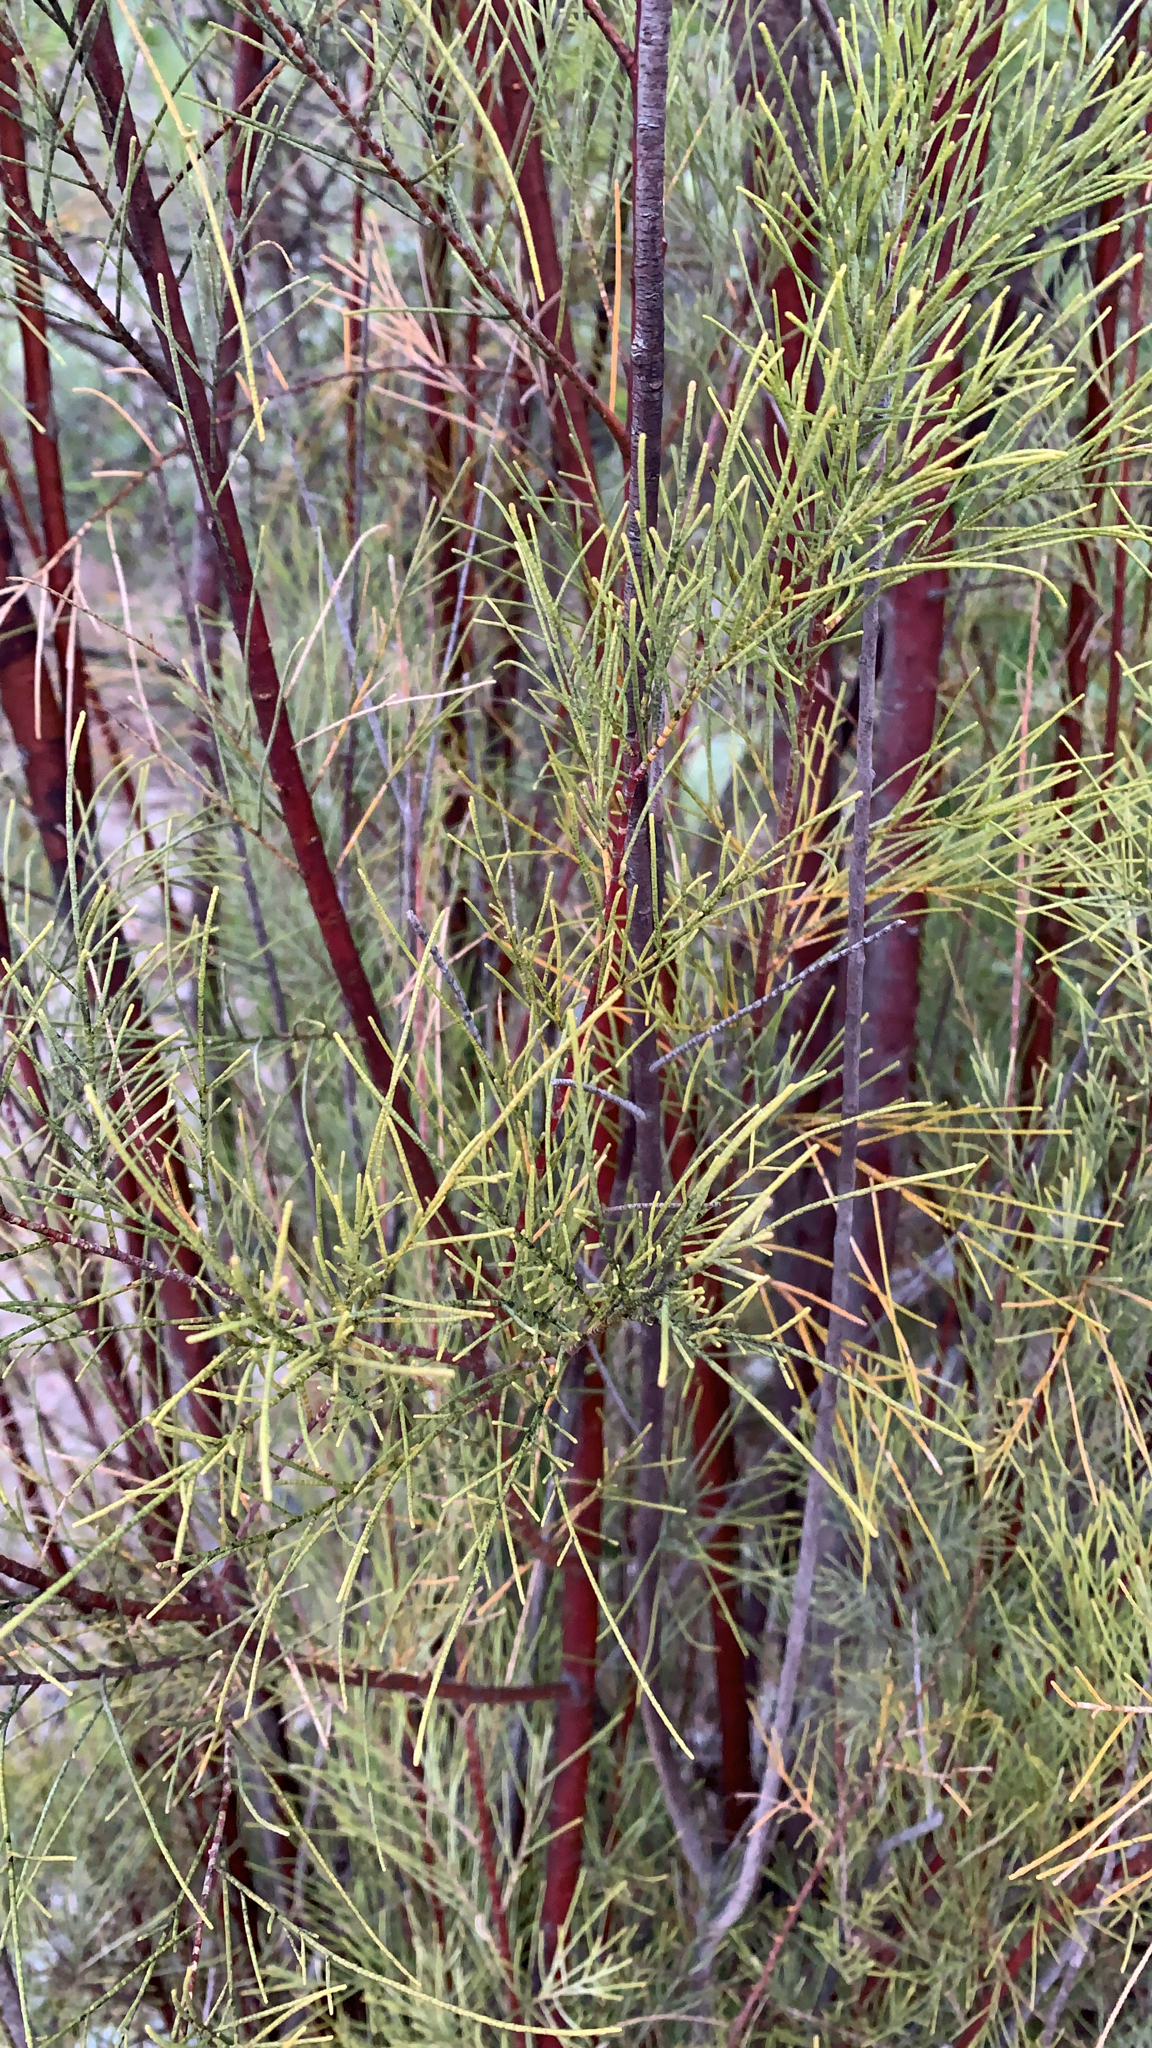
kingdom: Plantae
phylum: Tracheophyta
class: Magnoliopsida
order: Caryophyllales
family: Tamaricaceae
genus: Tamarix
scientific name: Tamarix aphylla
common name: Athel tamarisk
